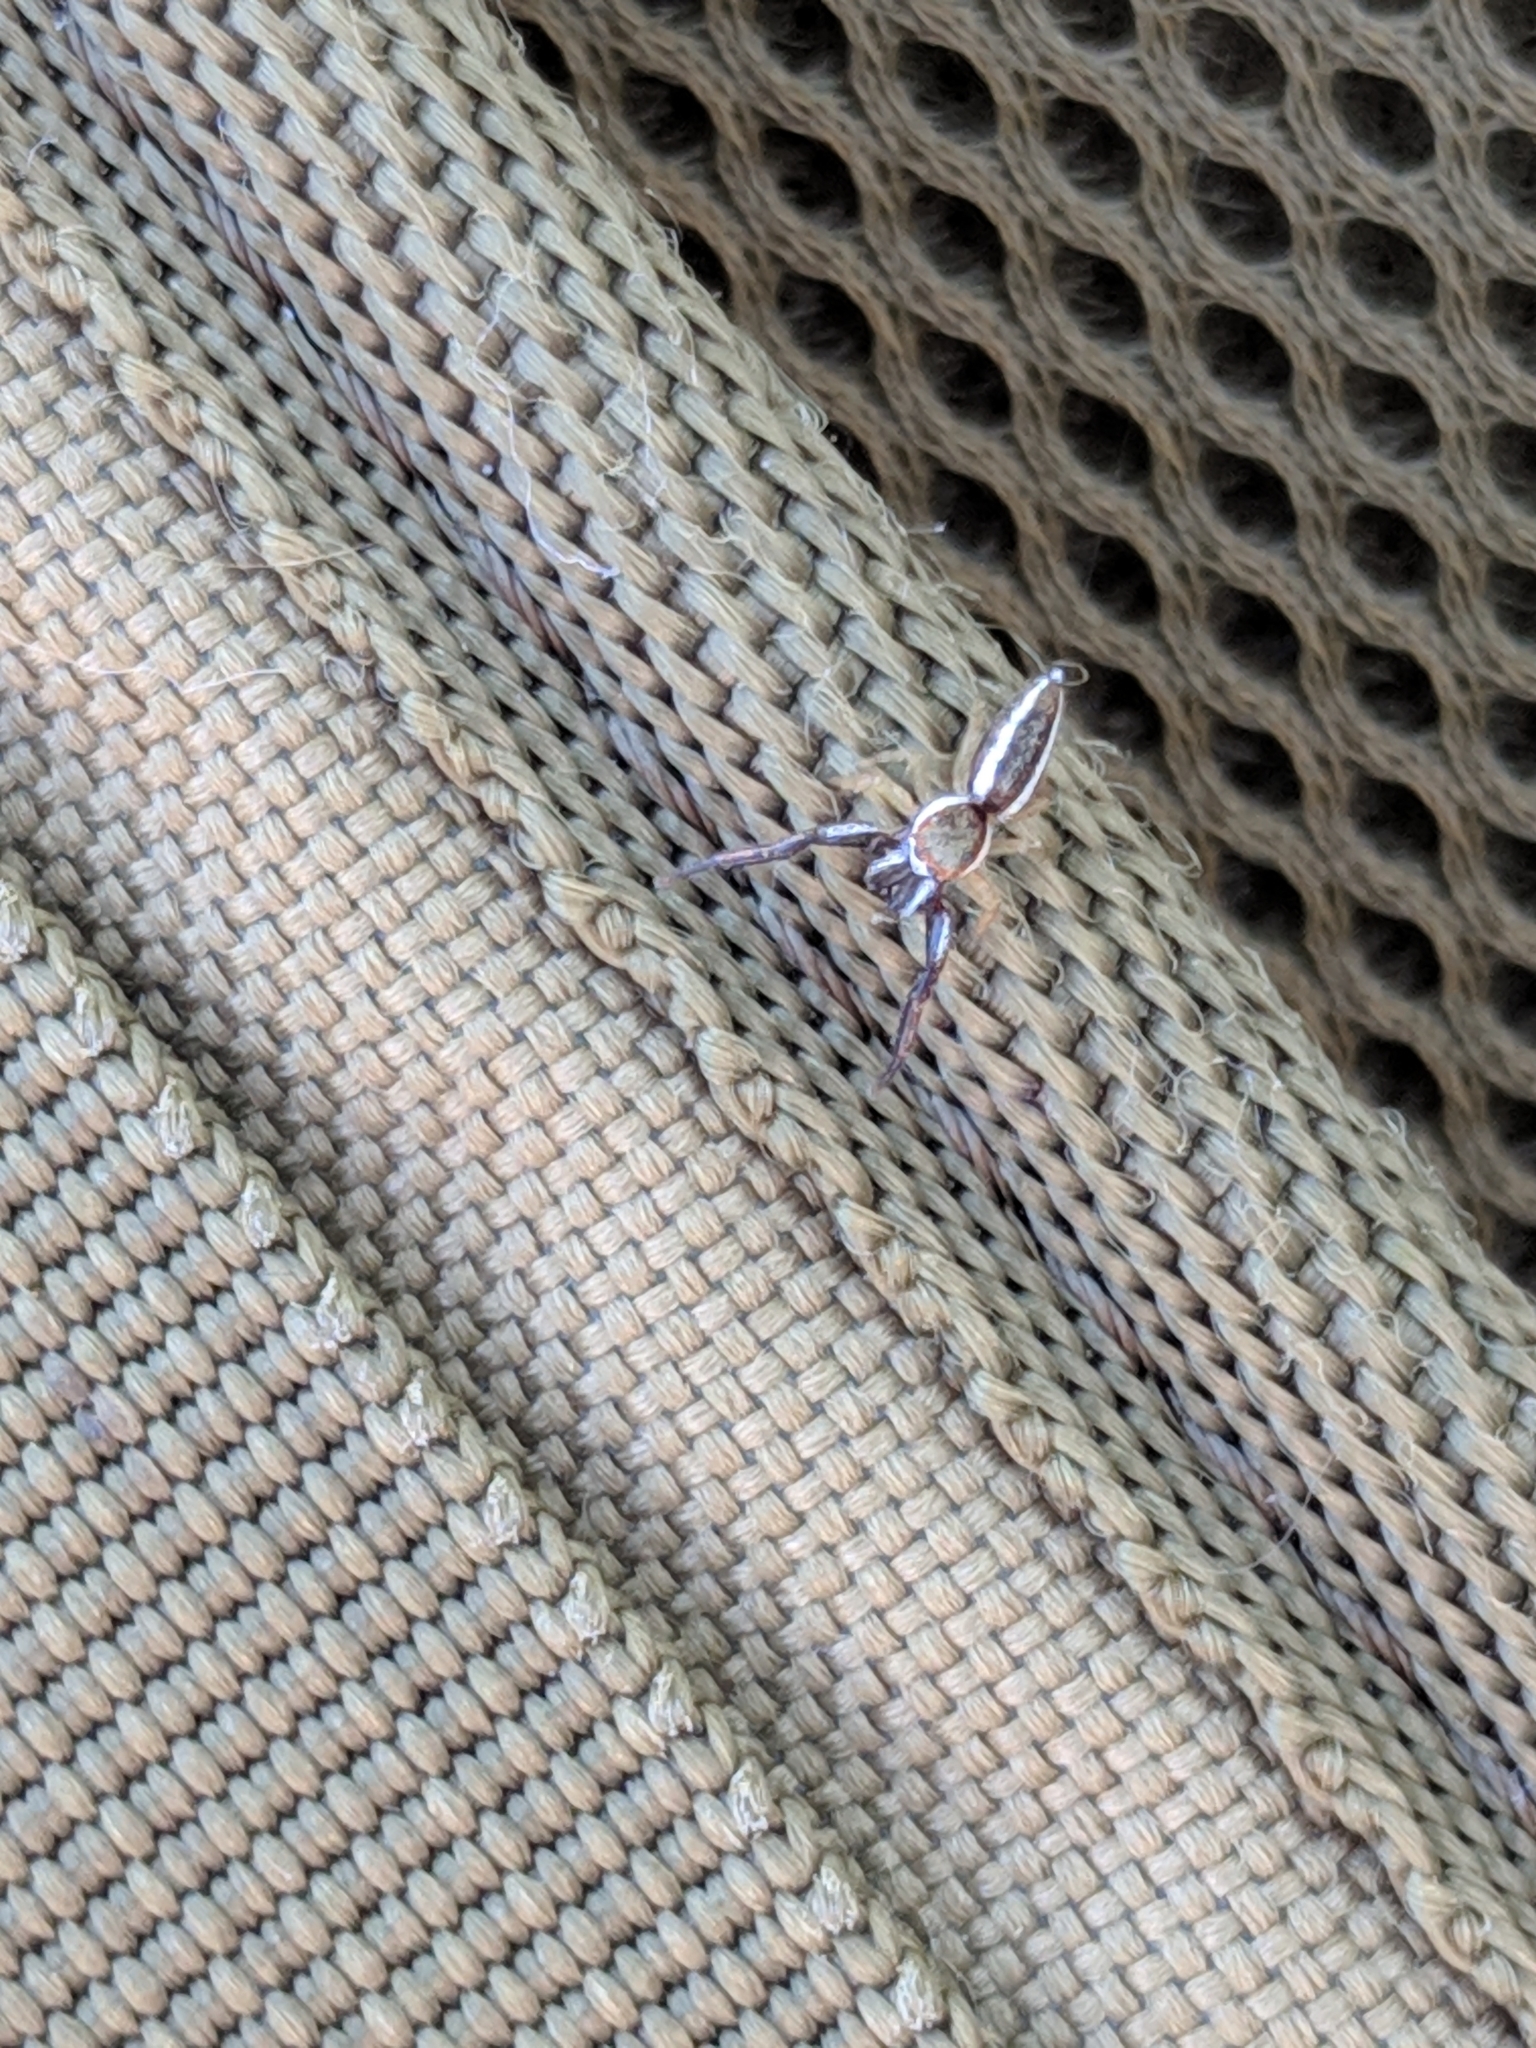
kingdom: Animalia
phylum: Arthropoda
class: Arachnida
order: Araneae
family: Salticidae
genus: Hentzia
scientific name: Hentzia palmarum
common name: Common hentz jumping spider
